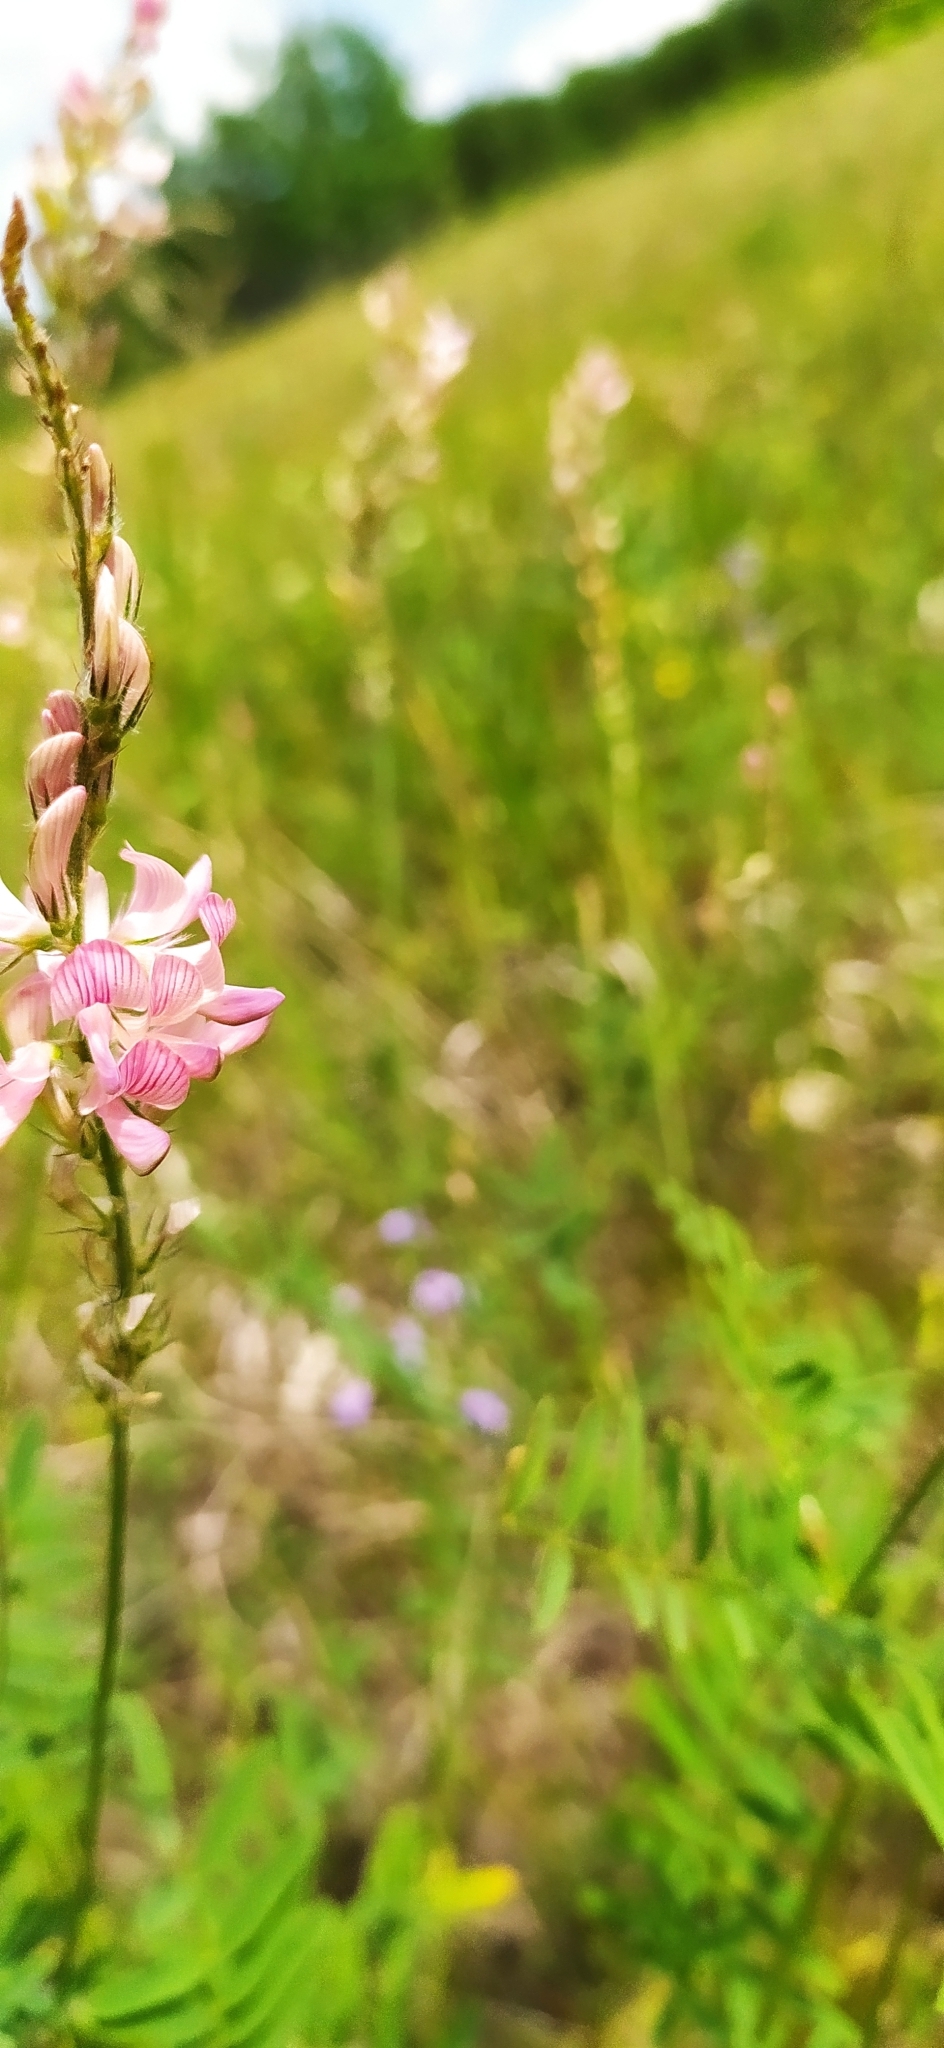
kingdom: Plantae
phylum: Tracheophyta
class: Magnoliopsida
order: Fabales
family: Fabaceae
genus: Onobrychis
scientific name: Onobrychis arenaria
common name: Sand esparcet
